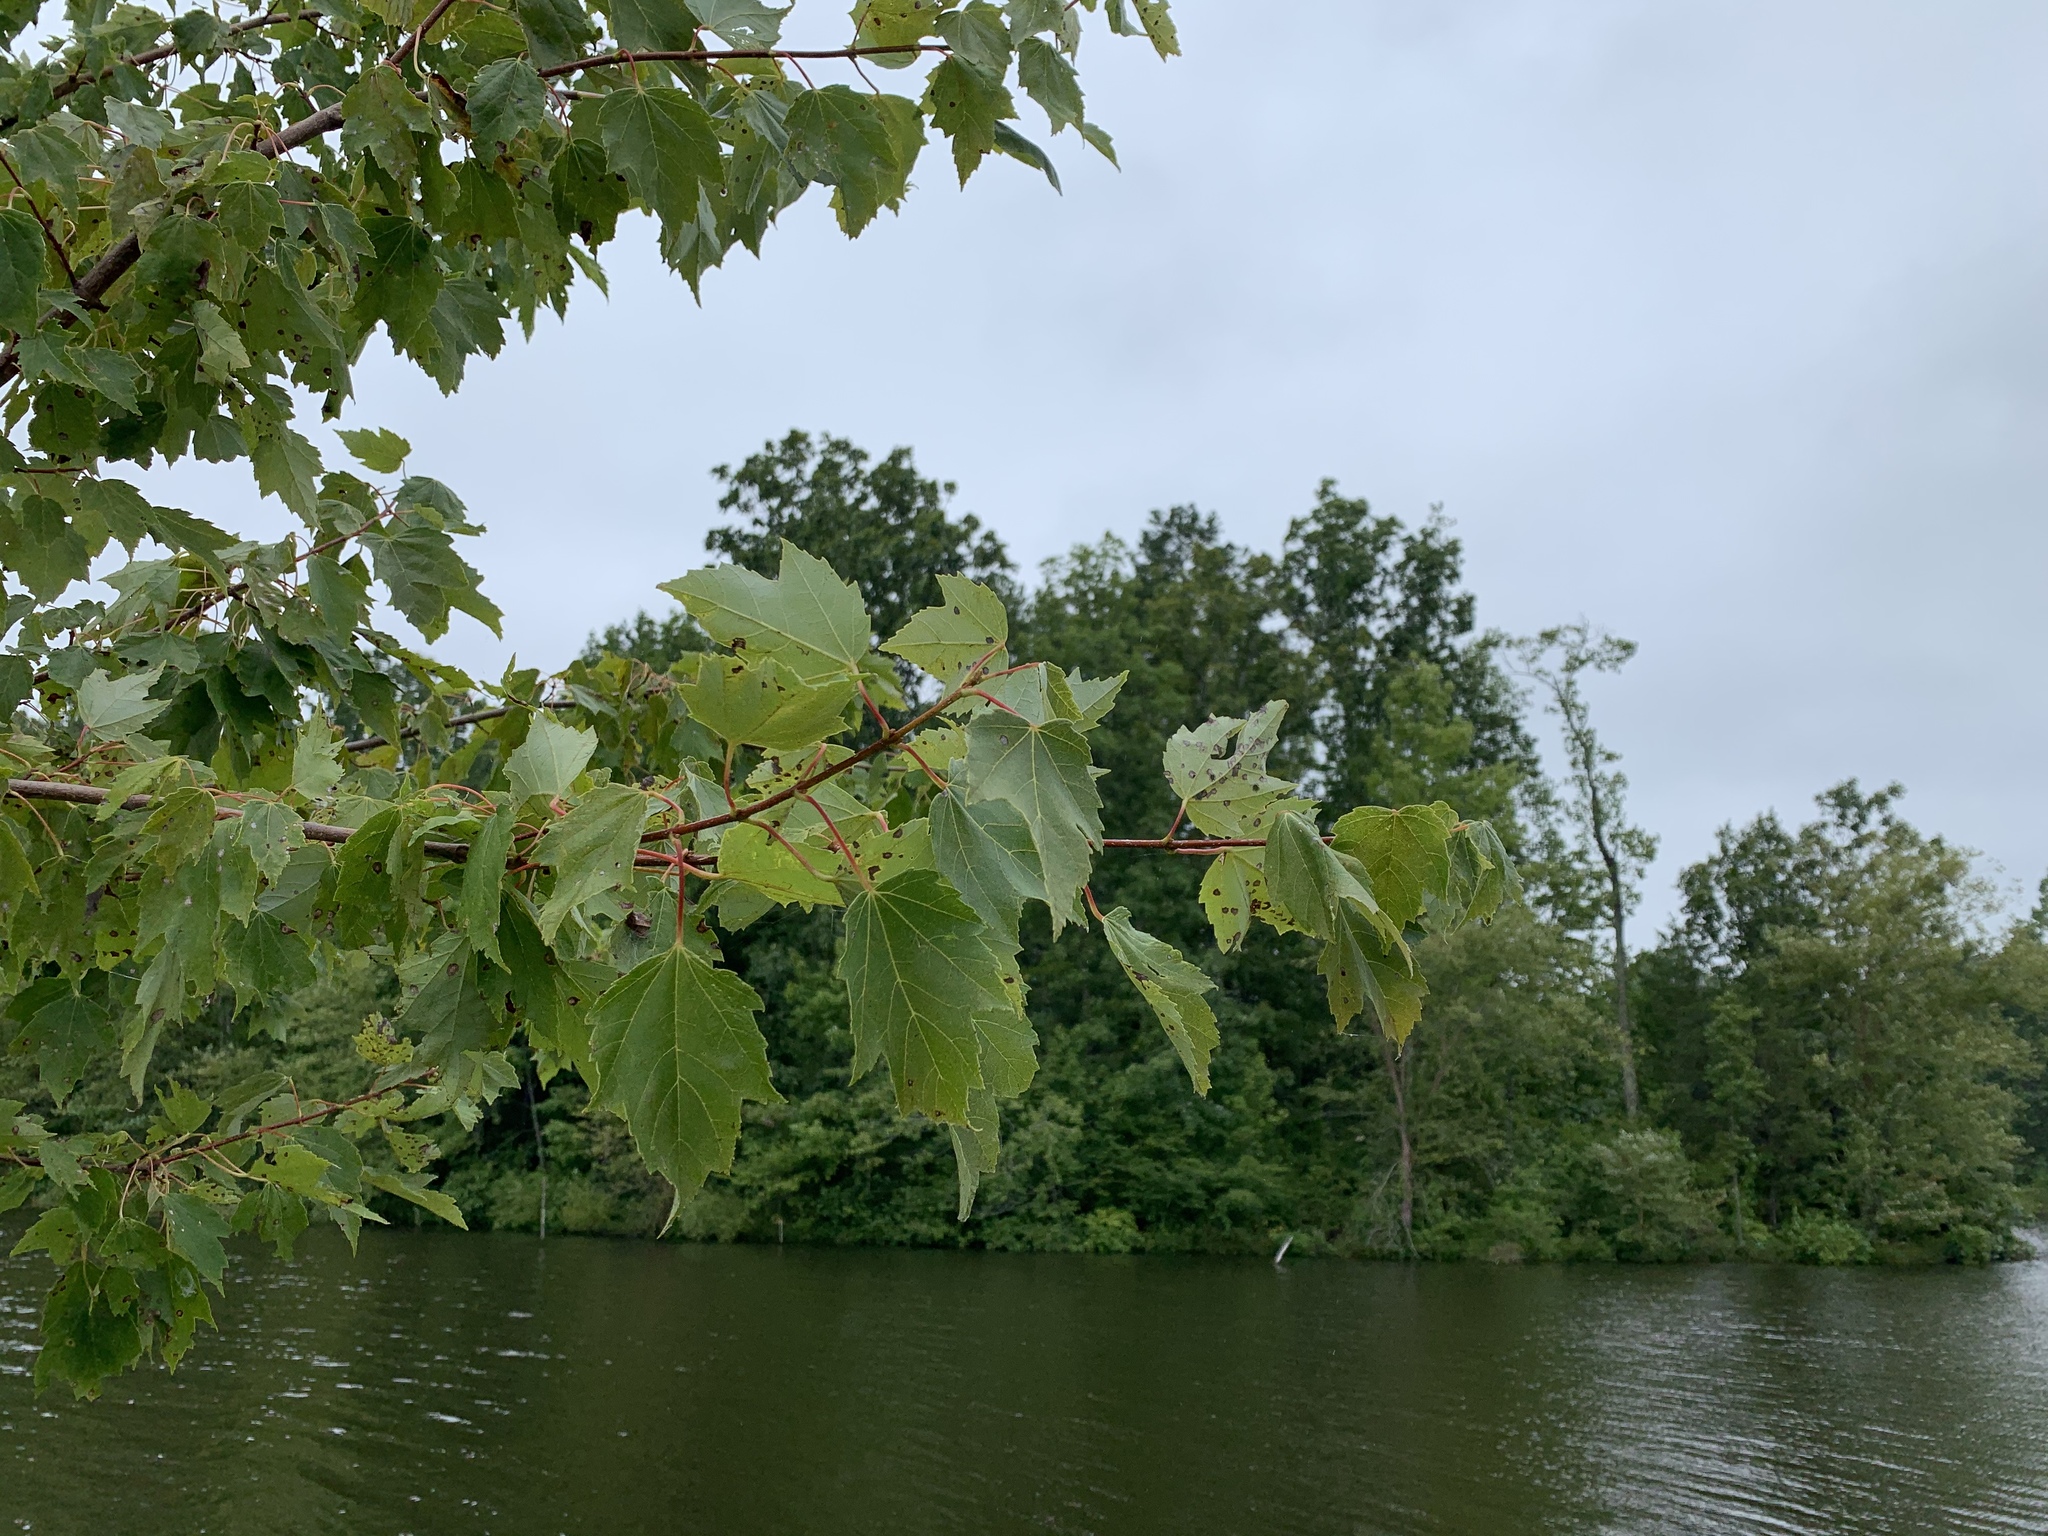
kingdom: Plantae
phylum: Tracheophyta
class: Magnoliopsida
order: Sapindales
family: Sapindaceae
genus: Acer
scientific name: Acer rubrum
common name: Red maple
